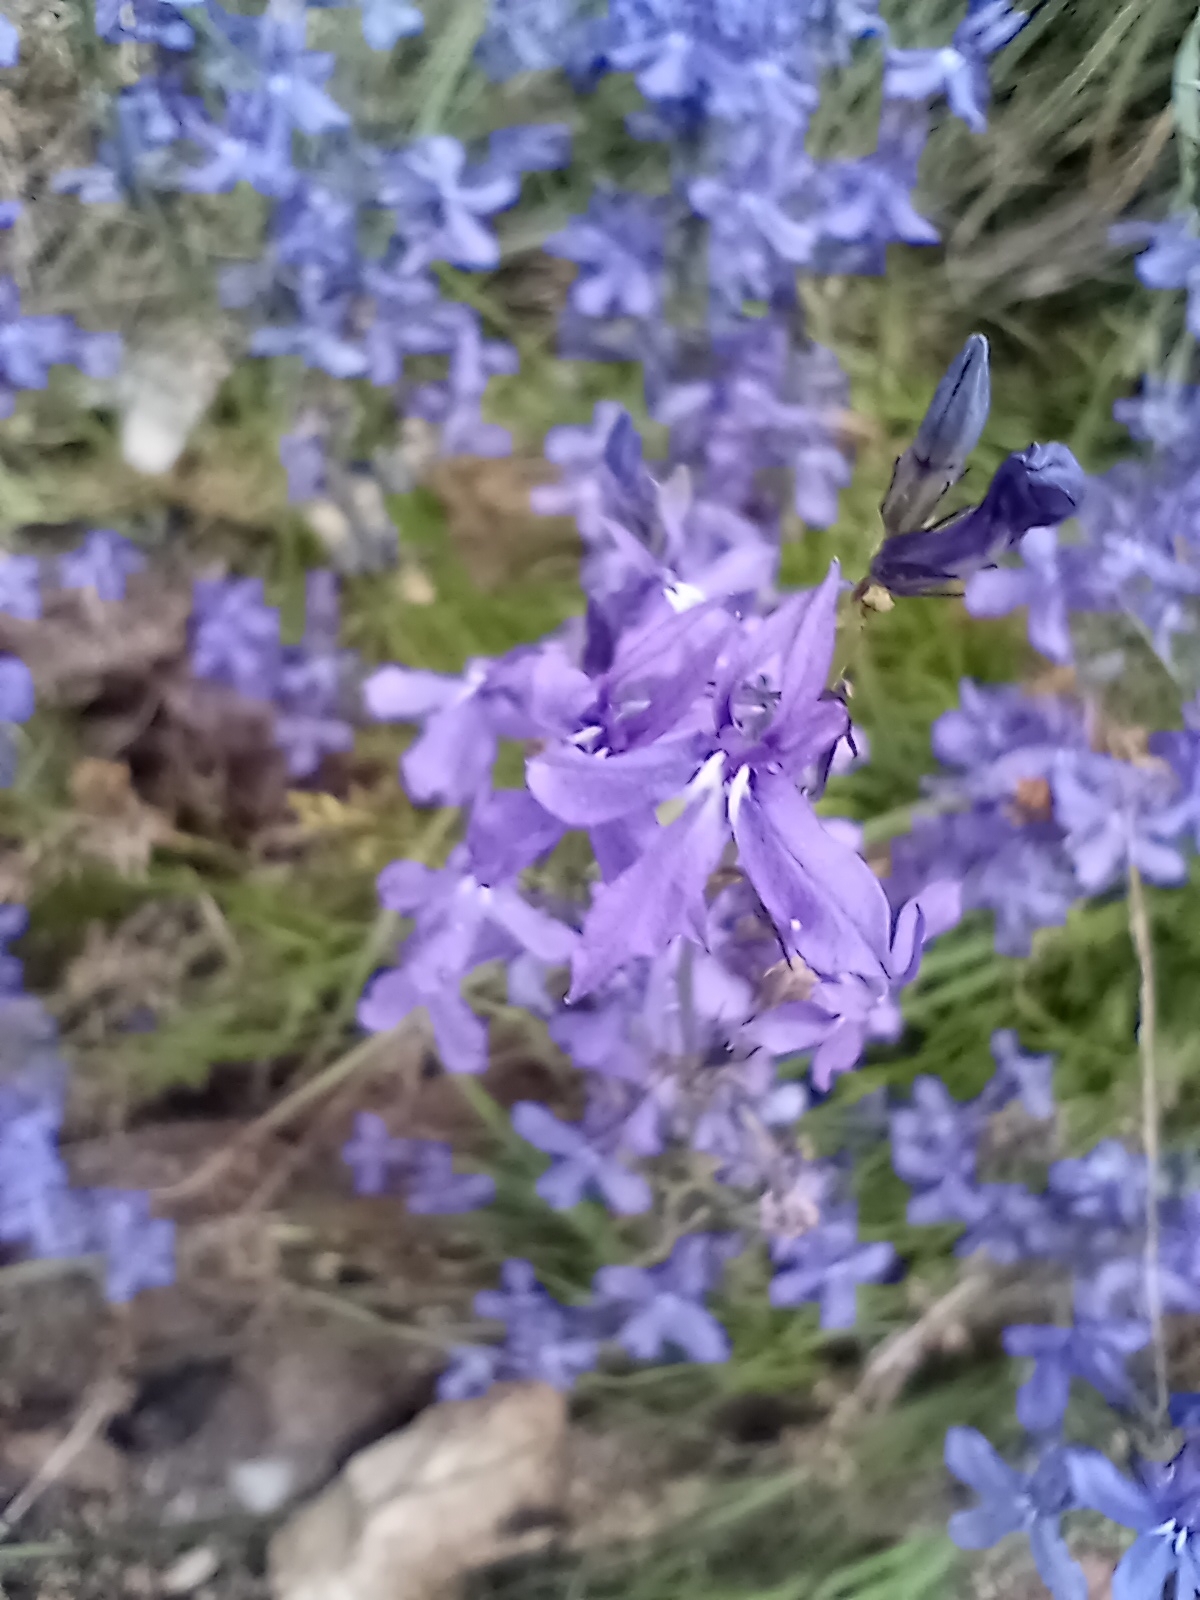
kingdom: Plantae
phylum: Tracheophyta
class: Magnoliopsida
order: Asterales
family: Campanulaceae
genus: Lobelia
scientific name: Lobelia anatina
